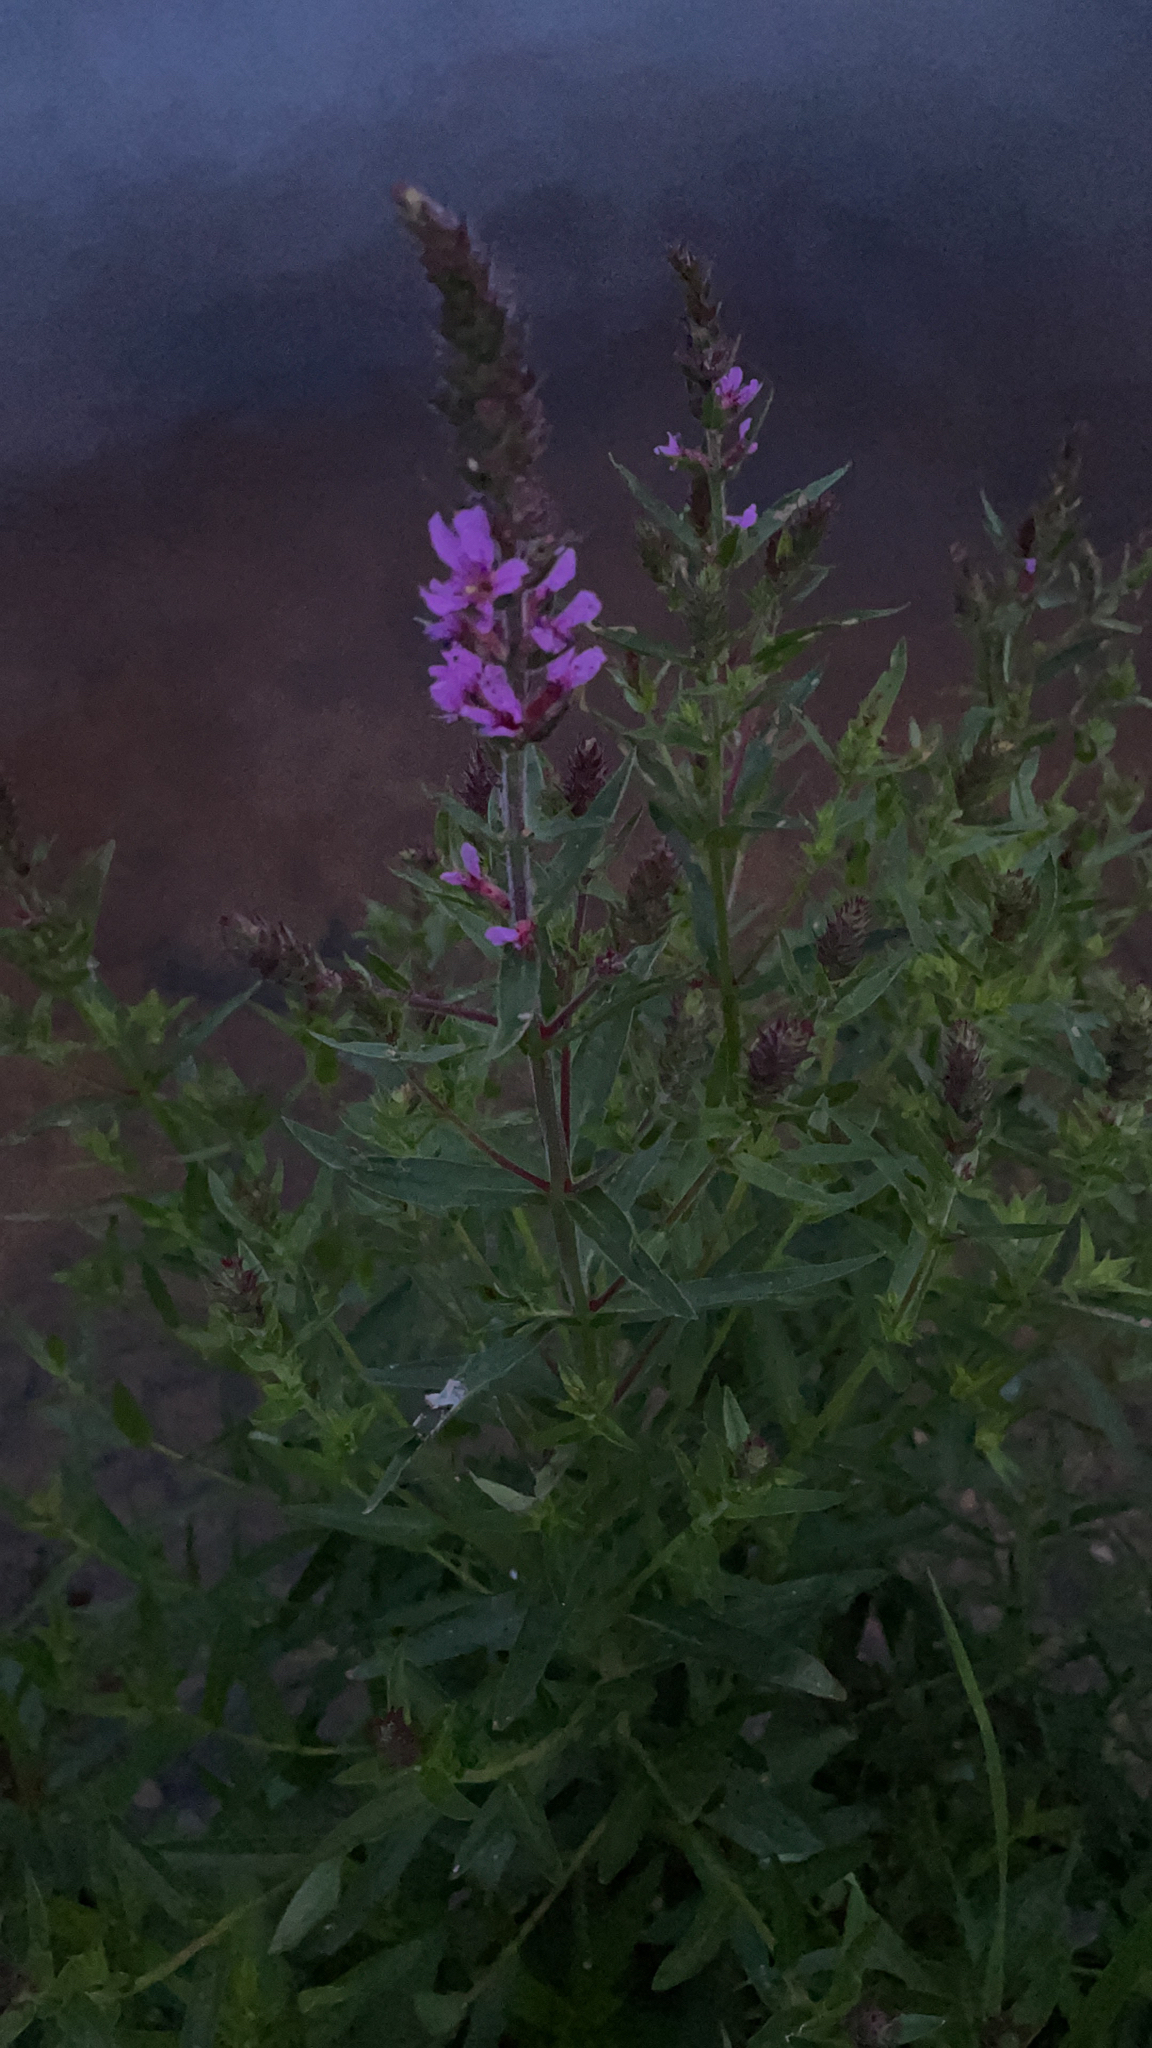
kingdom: Plantae
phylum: Tracheophyta
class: Magnoliopsida
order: Myrtales
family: Lythraceae
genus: Lythrum
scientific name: Lythrum salicaria
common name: Purple loosestrife
